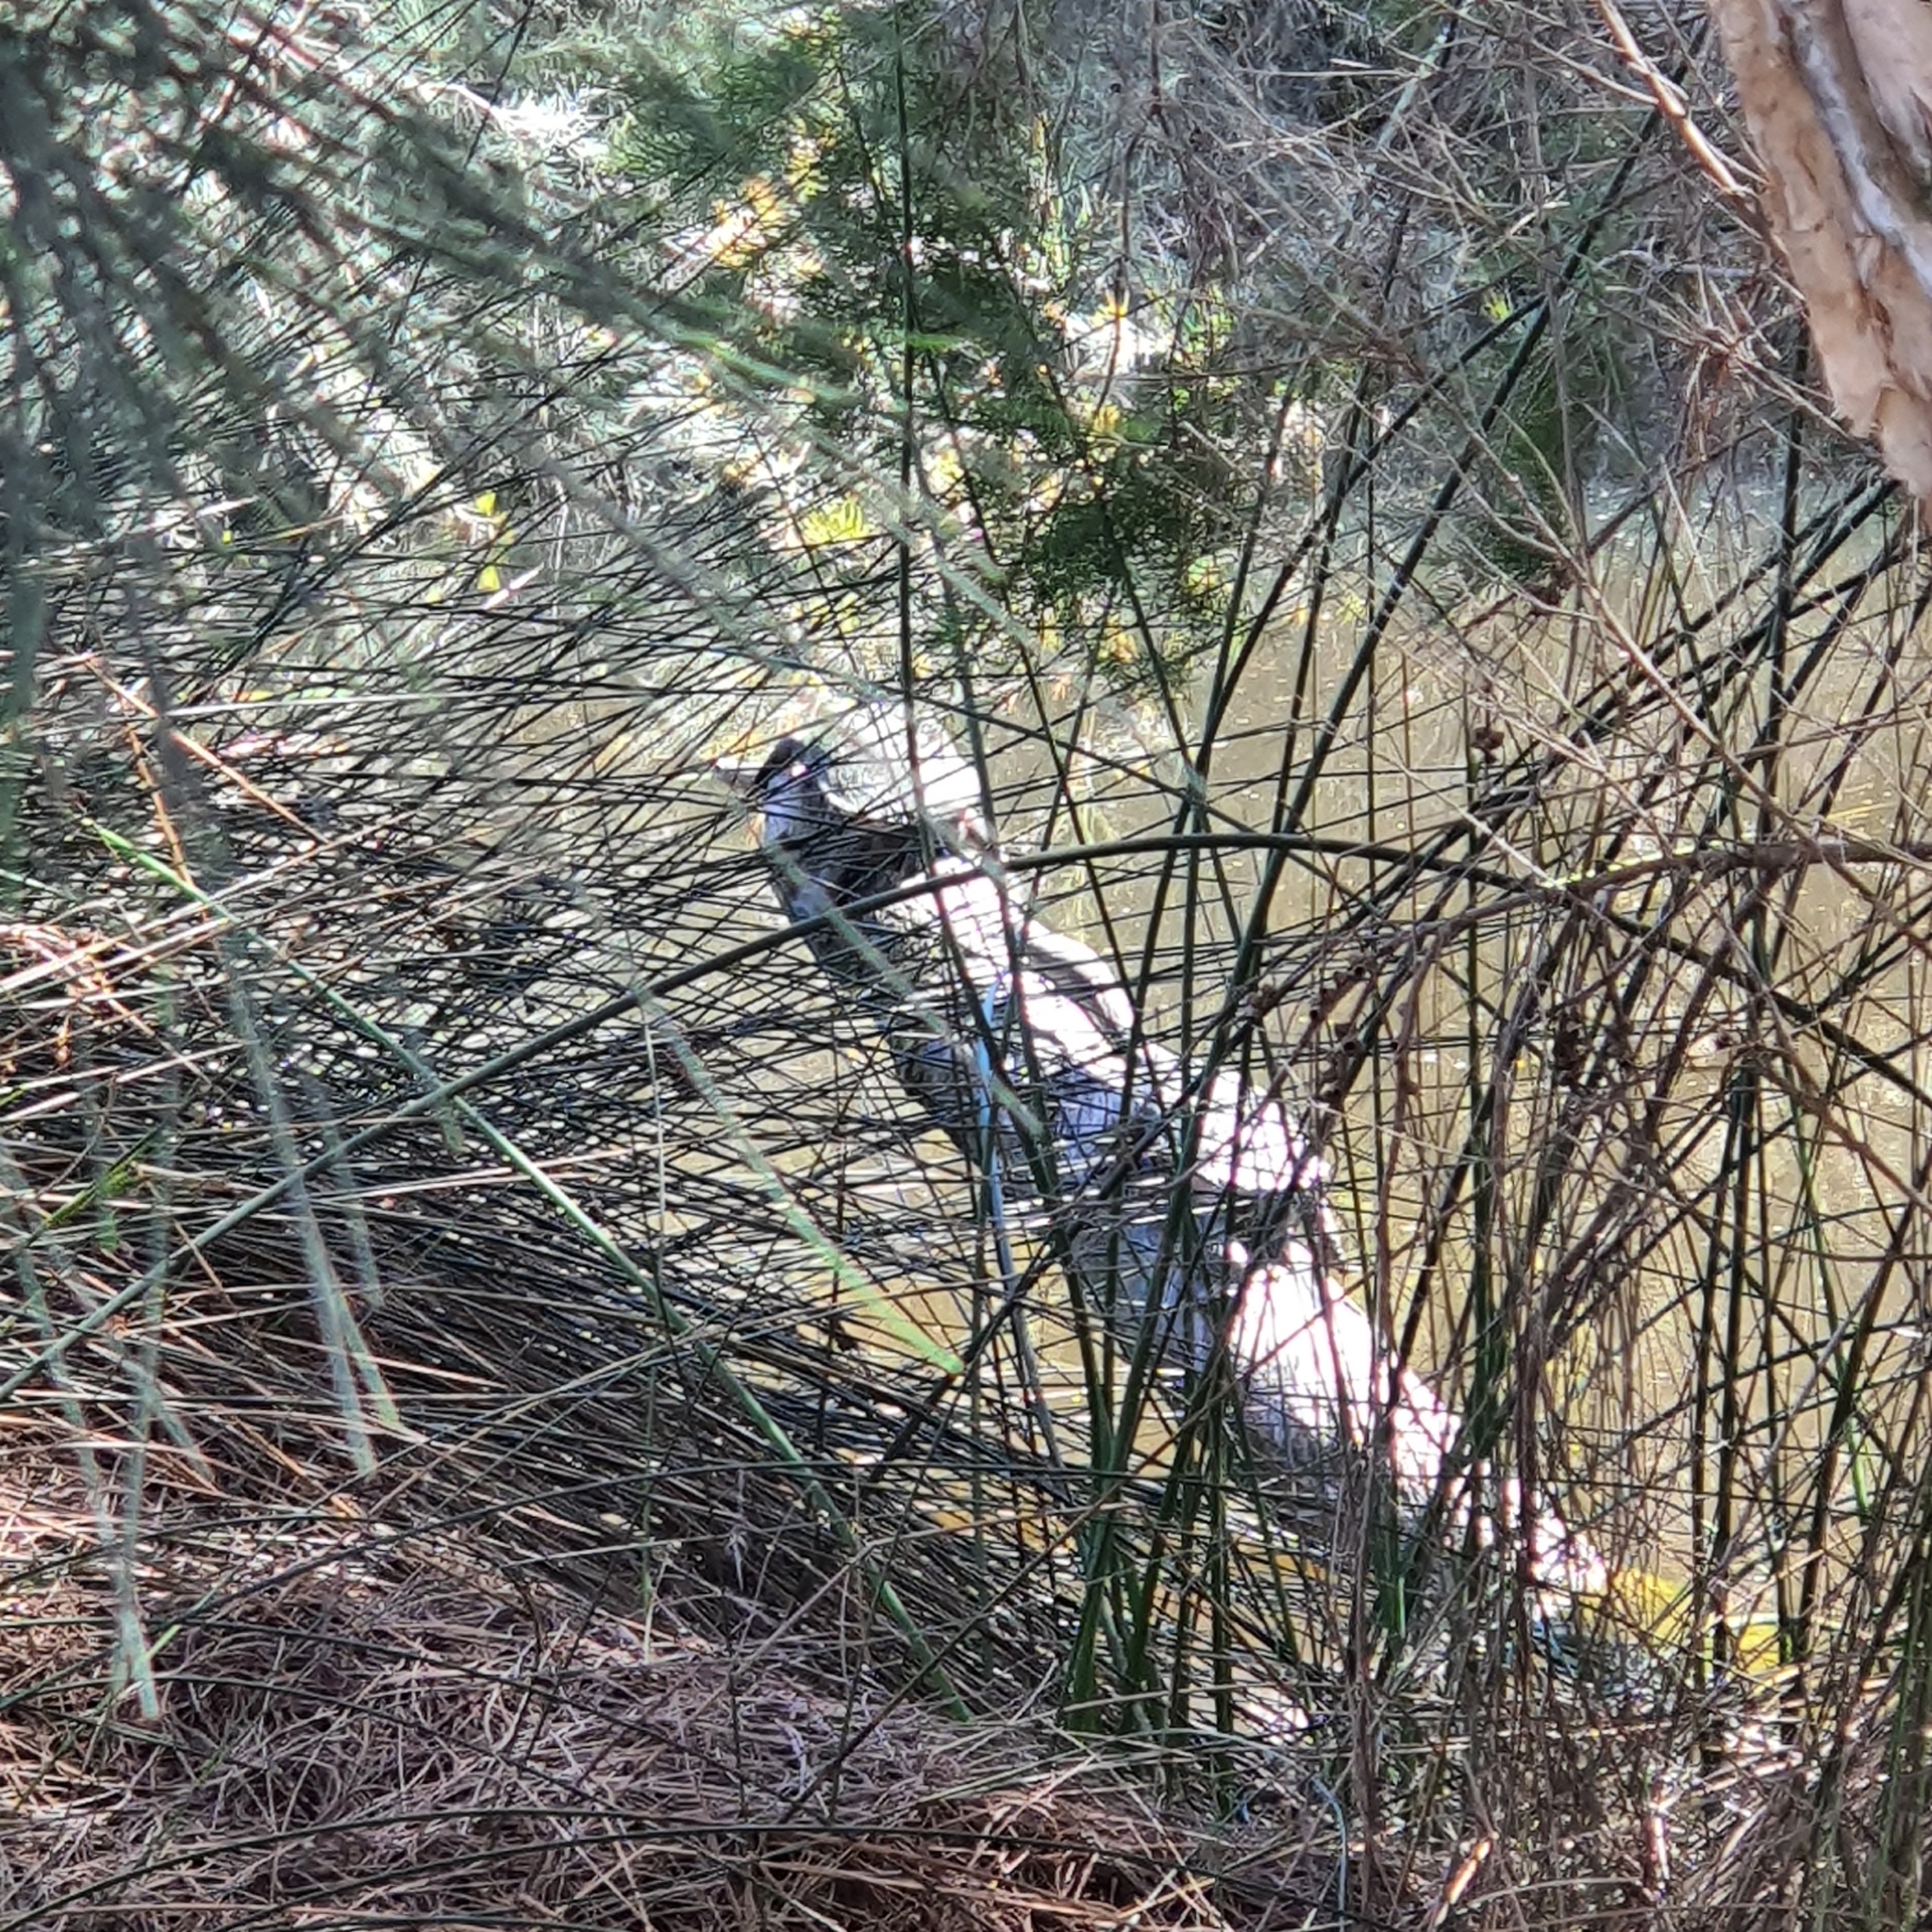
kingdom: Animalia
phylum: Chordata
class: Testudines
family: Chelidae
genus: Chelodina
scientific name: Chelodina oblonga
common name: Northern snake-necked turtle
